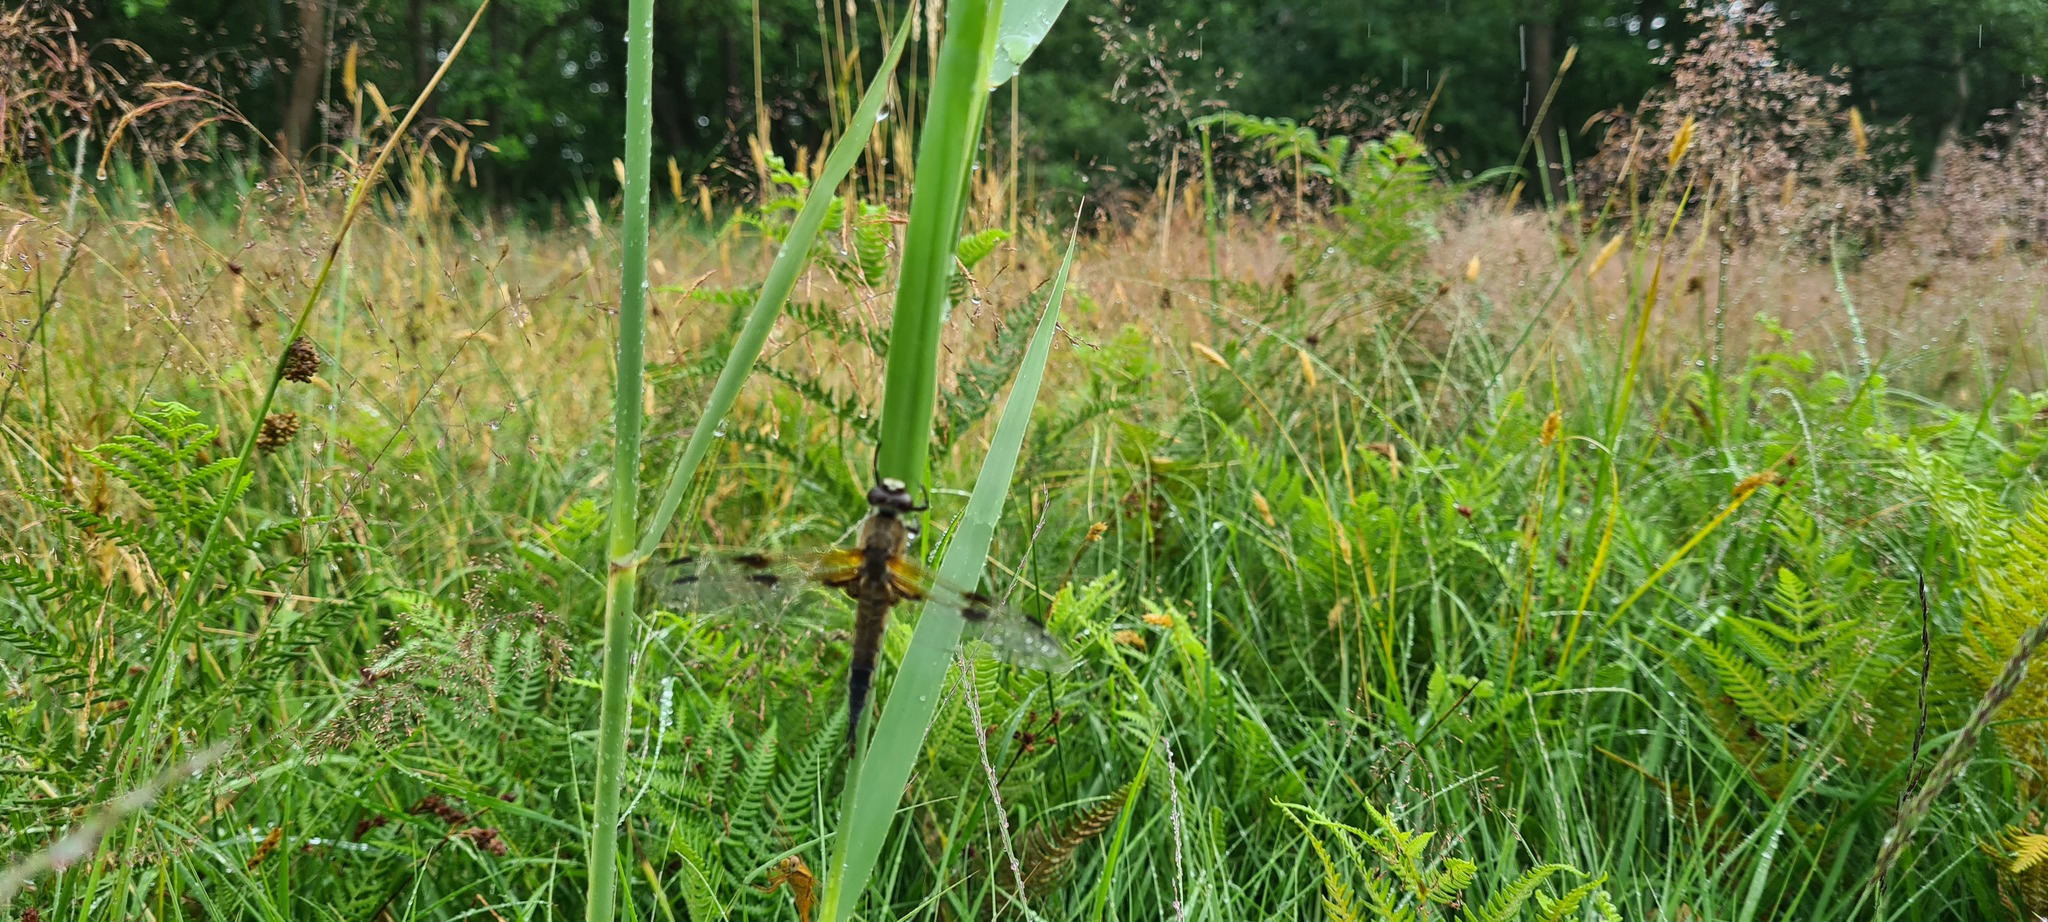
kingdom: Animalia
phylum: Arthropoda
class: Insecta
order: Odonata
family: Libellulidae
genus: Libellula
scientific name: Libellula quadrimaculata
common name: Four-spotted chaser
